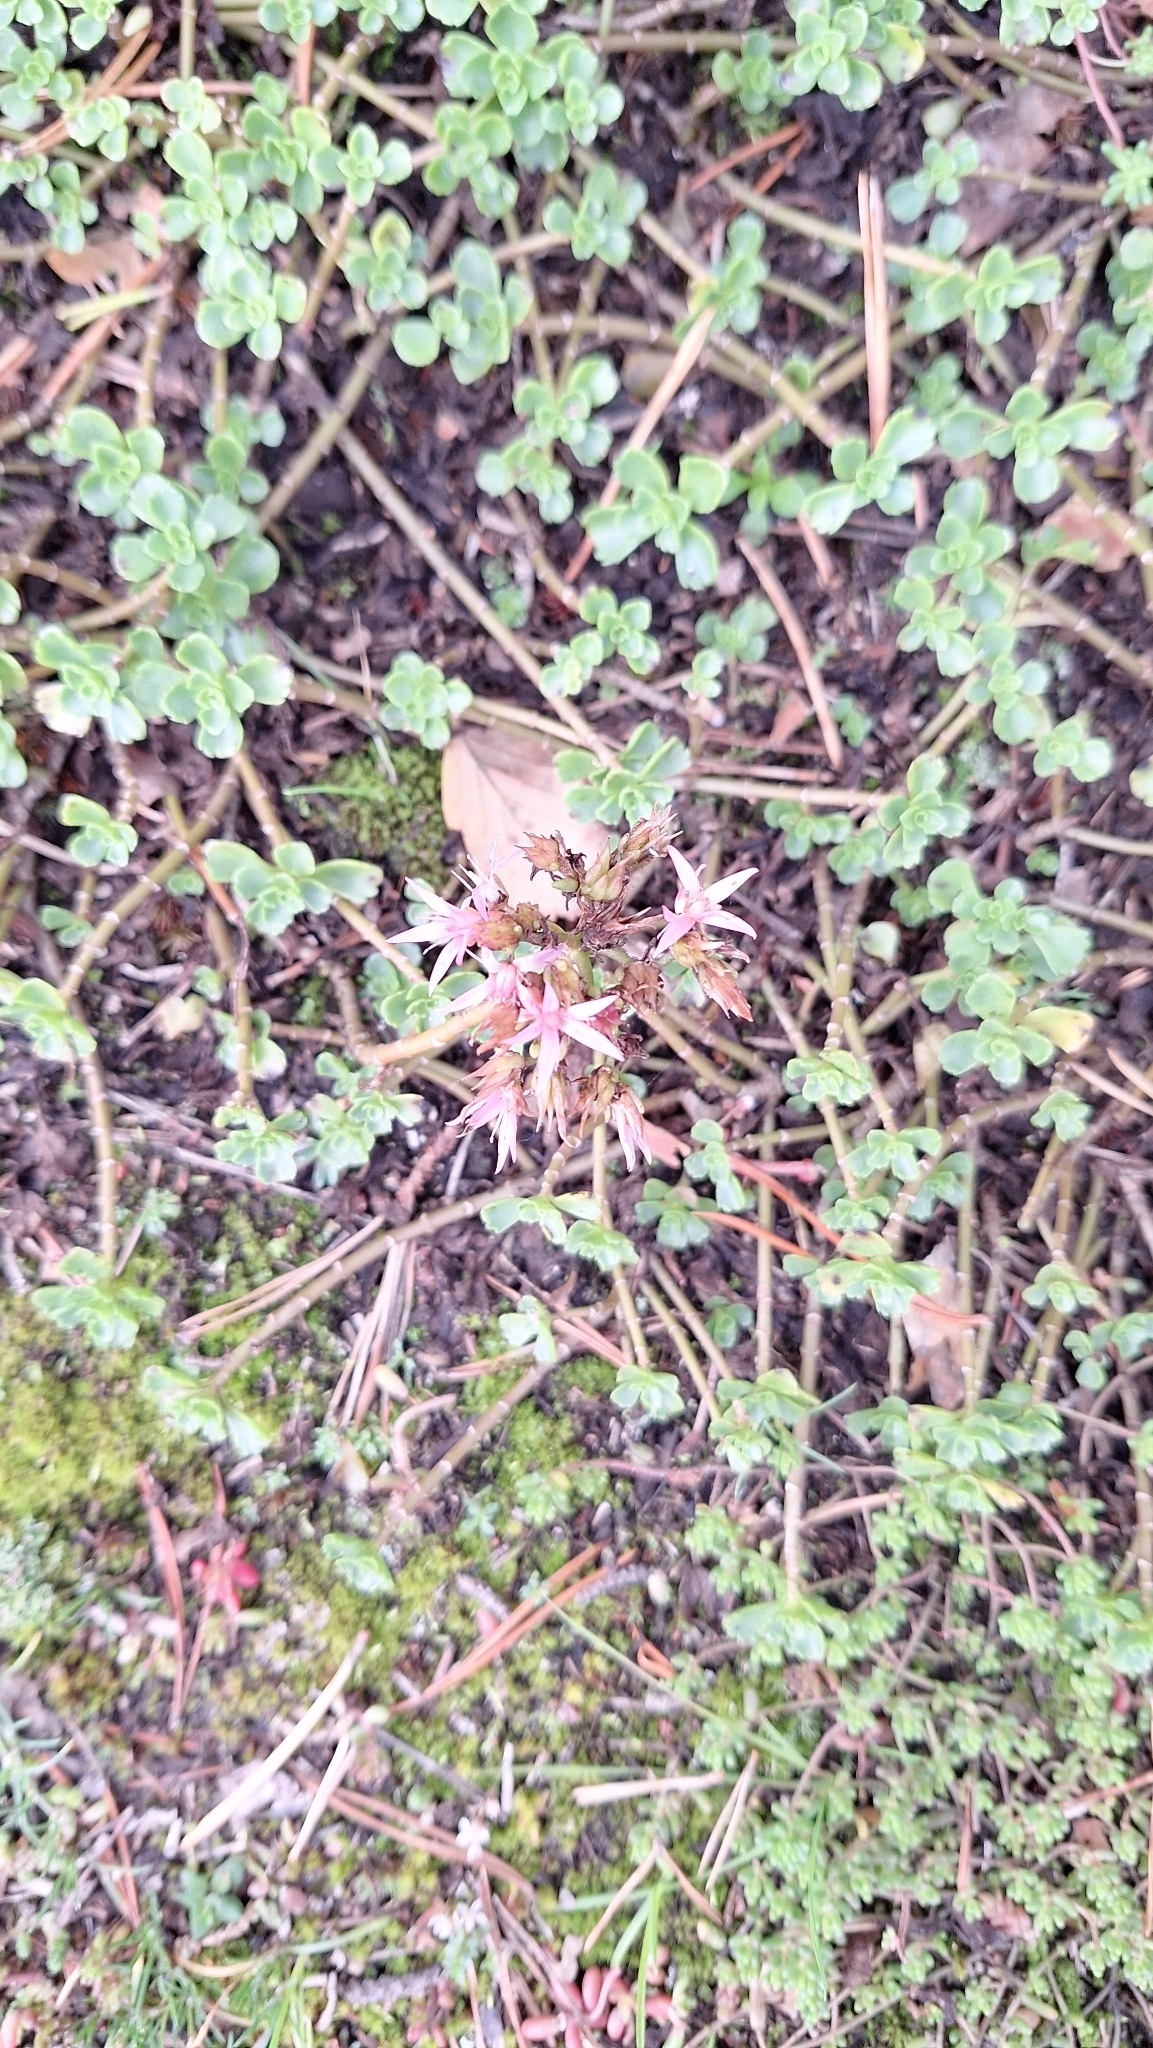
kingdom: Plantae
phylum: Tracheophyta
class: Magnoliopsida
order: Saxifragales
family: Crassulaceae
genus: Phedimus
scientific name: Phedimus spurius
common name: Caucasian stonecrop
